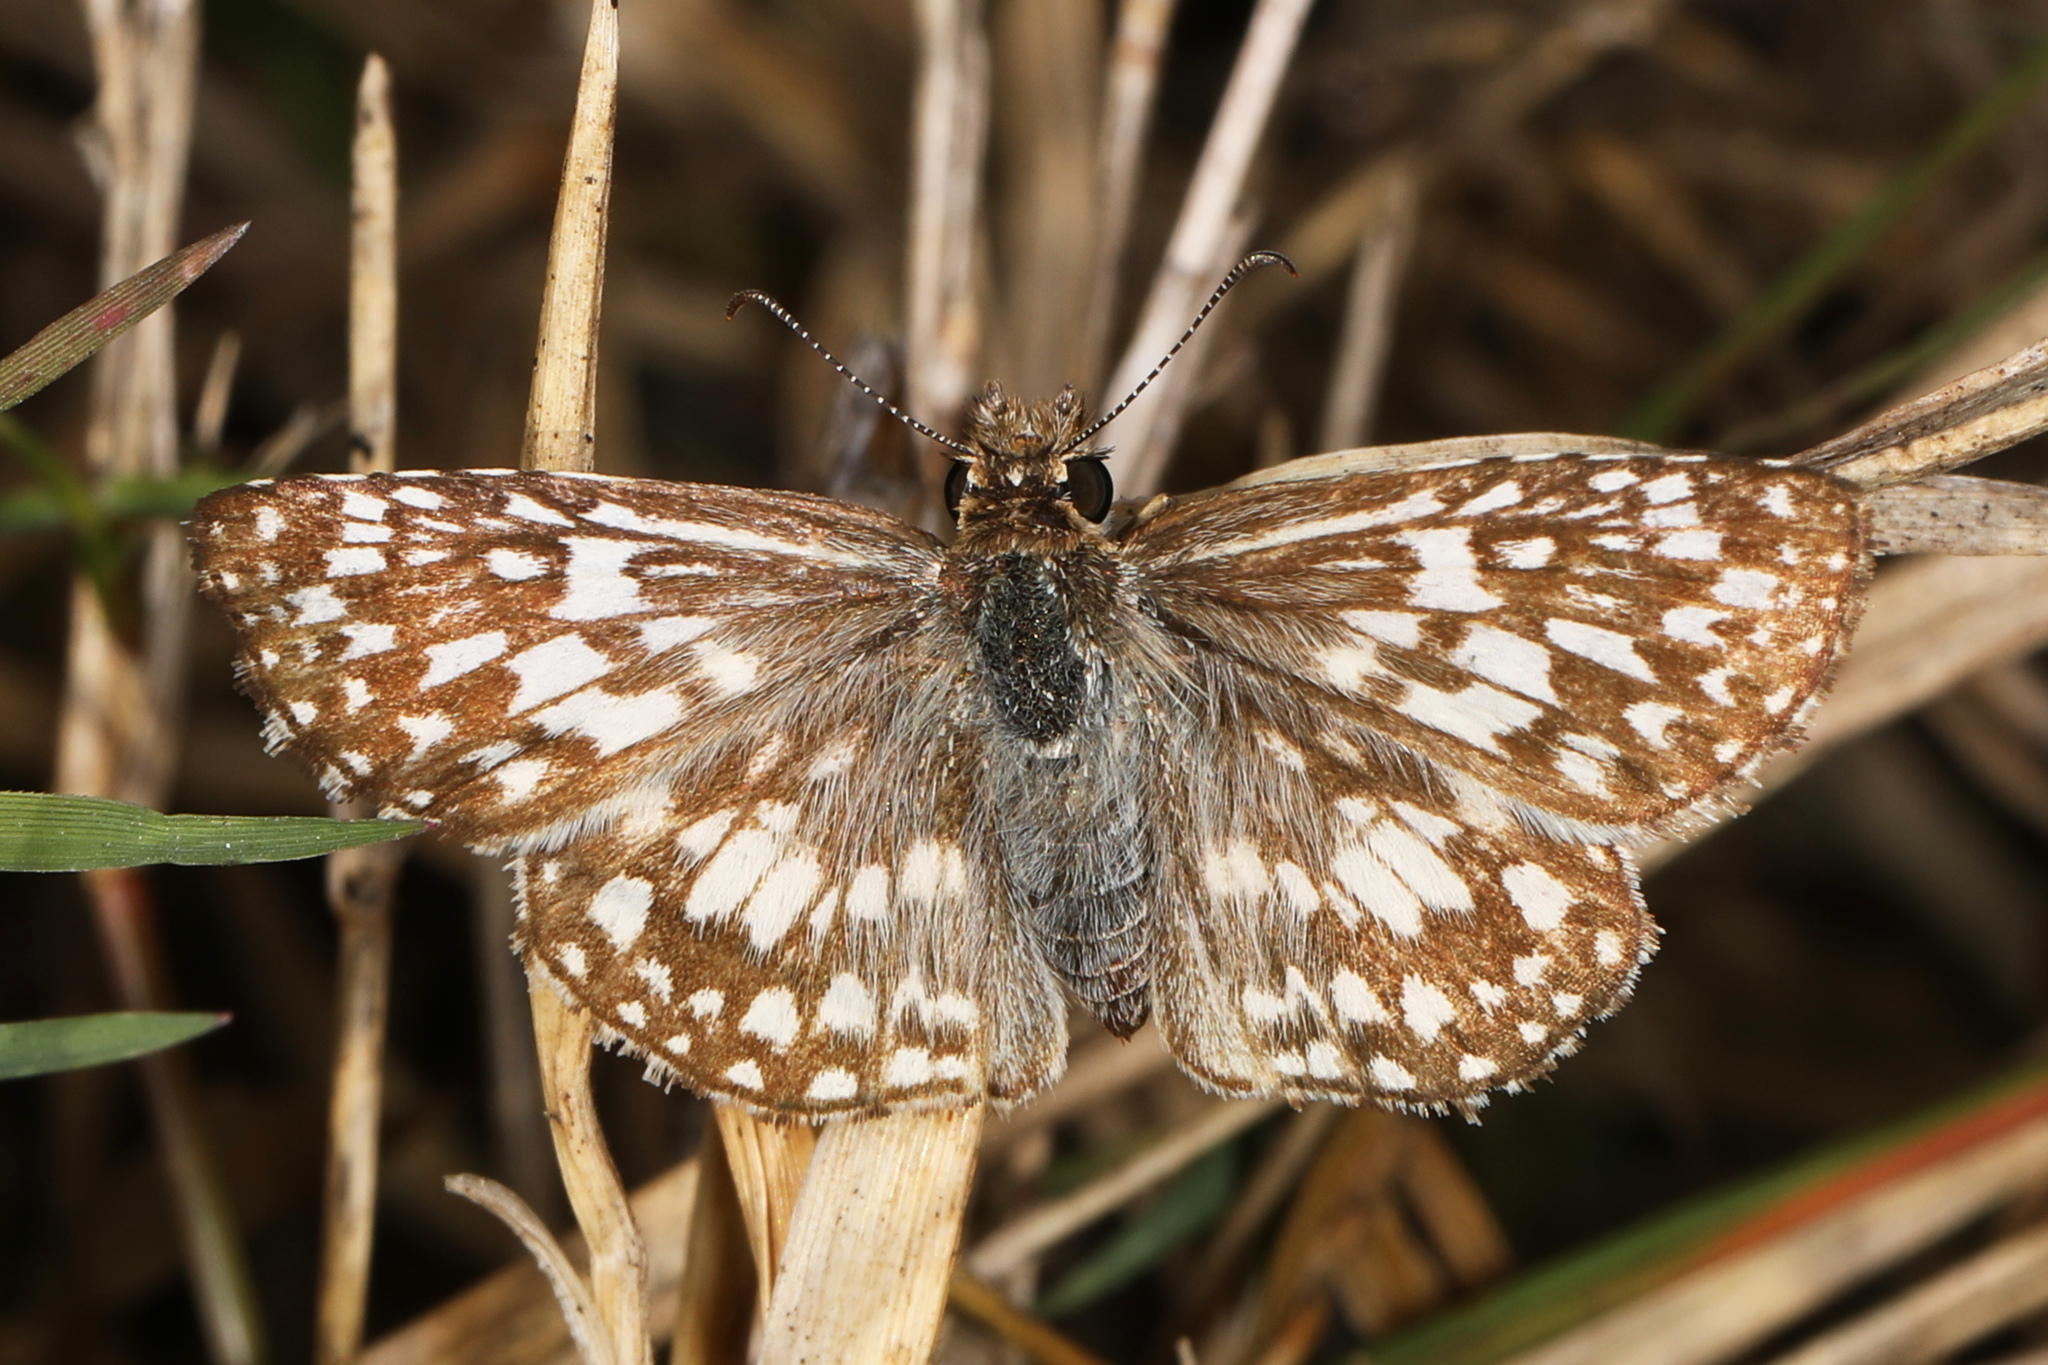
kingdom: Animalia
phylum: Arthropoda
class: Insecta
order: Lepidoptera
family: Hesperiidae
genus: Pyrgus
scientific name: Pyrgus oileus
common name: Tropical checkered-skipper
